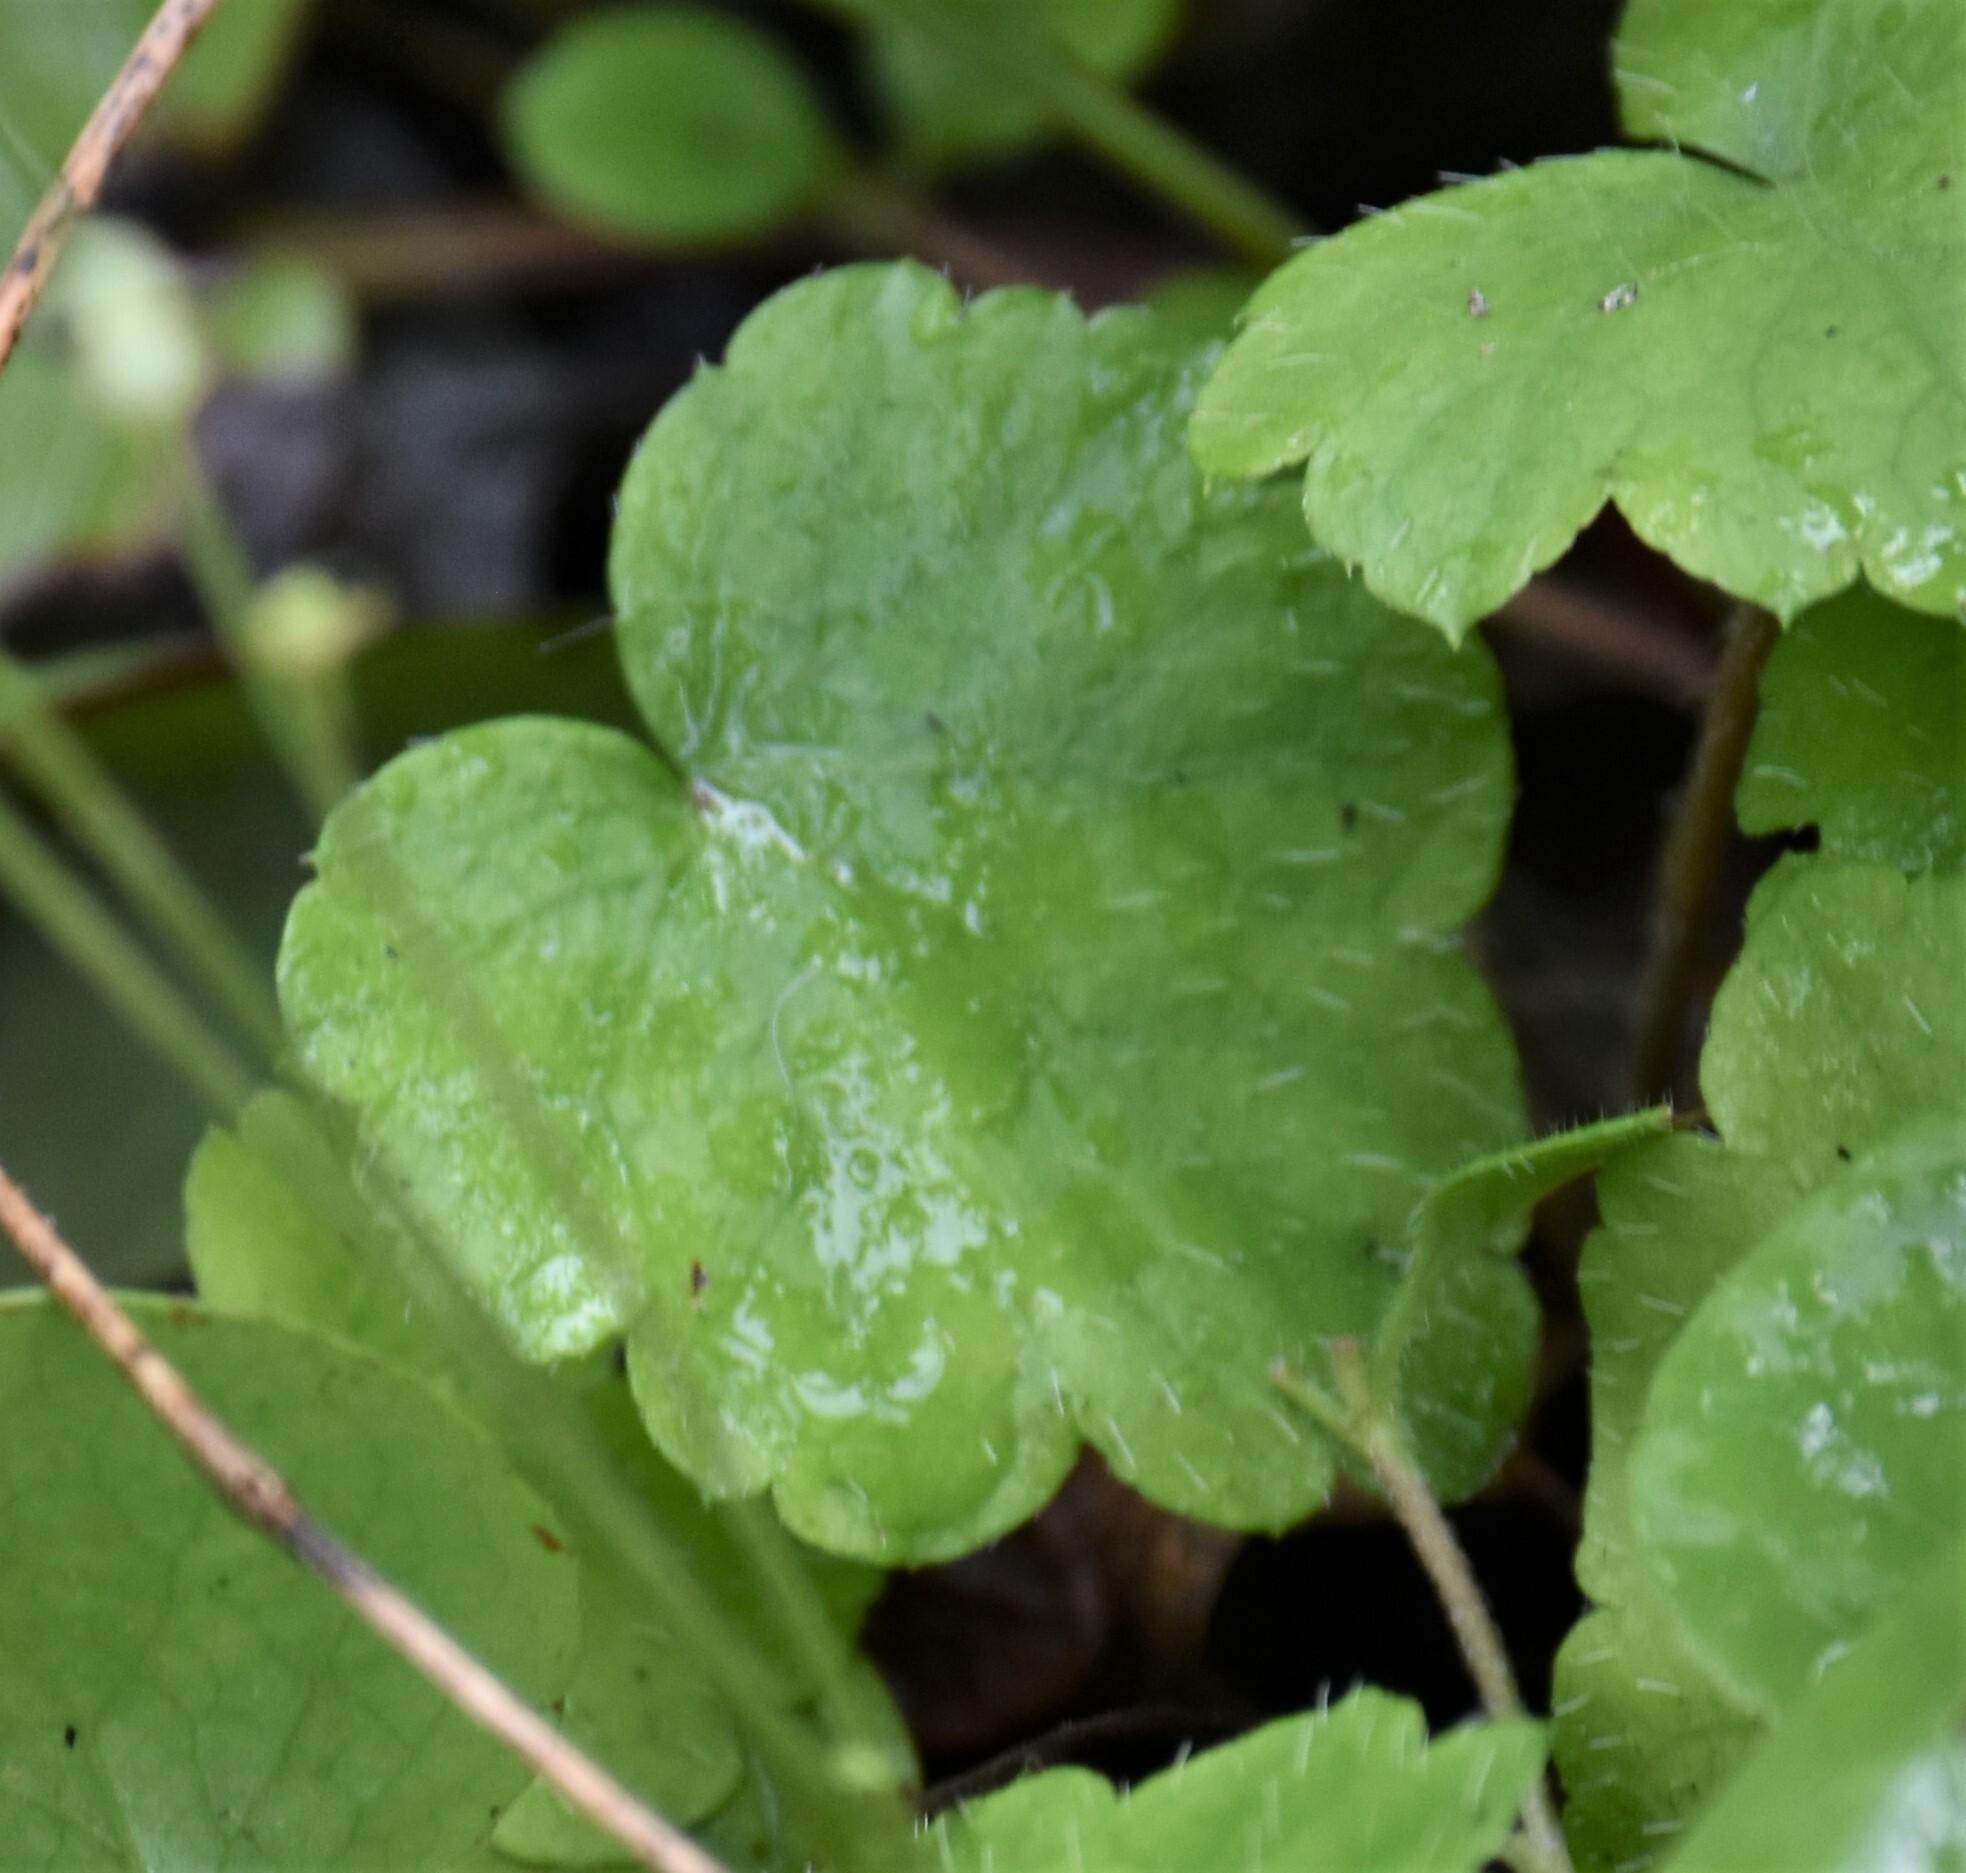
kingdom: Plantae
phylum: Tracheophyta
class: Magnoliopsida
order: Saxifragales
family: Saxifragaceae
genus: Mitella
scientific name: Mitella nuda
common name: Bare-stemmed bishop's-cap
